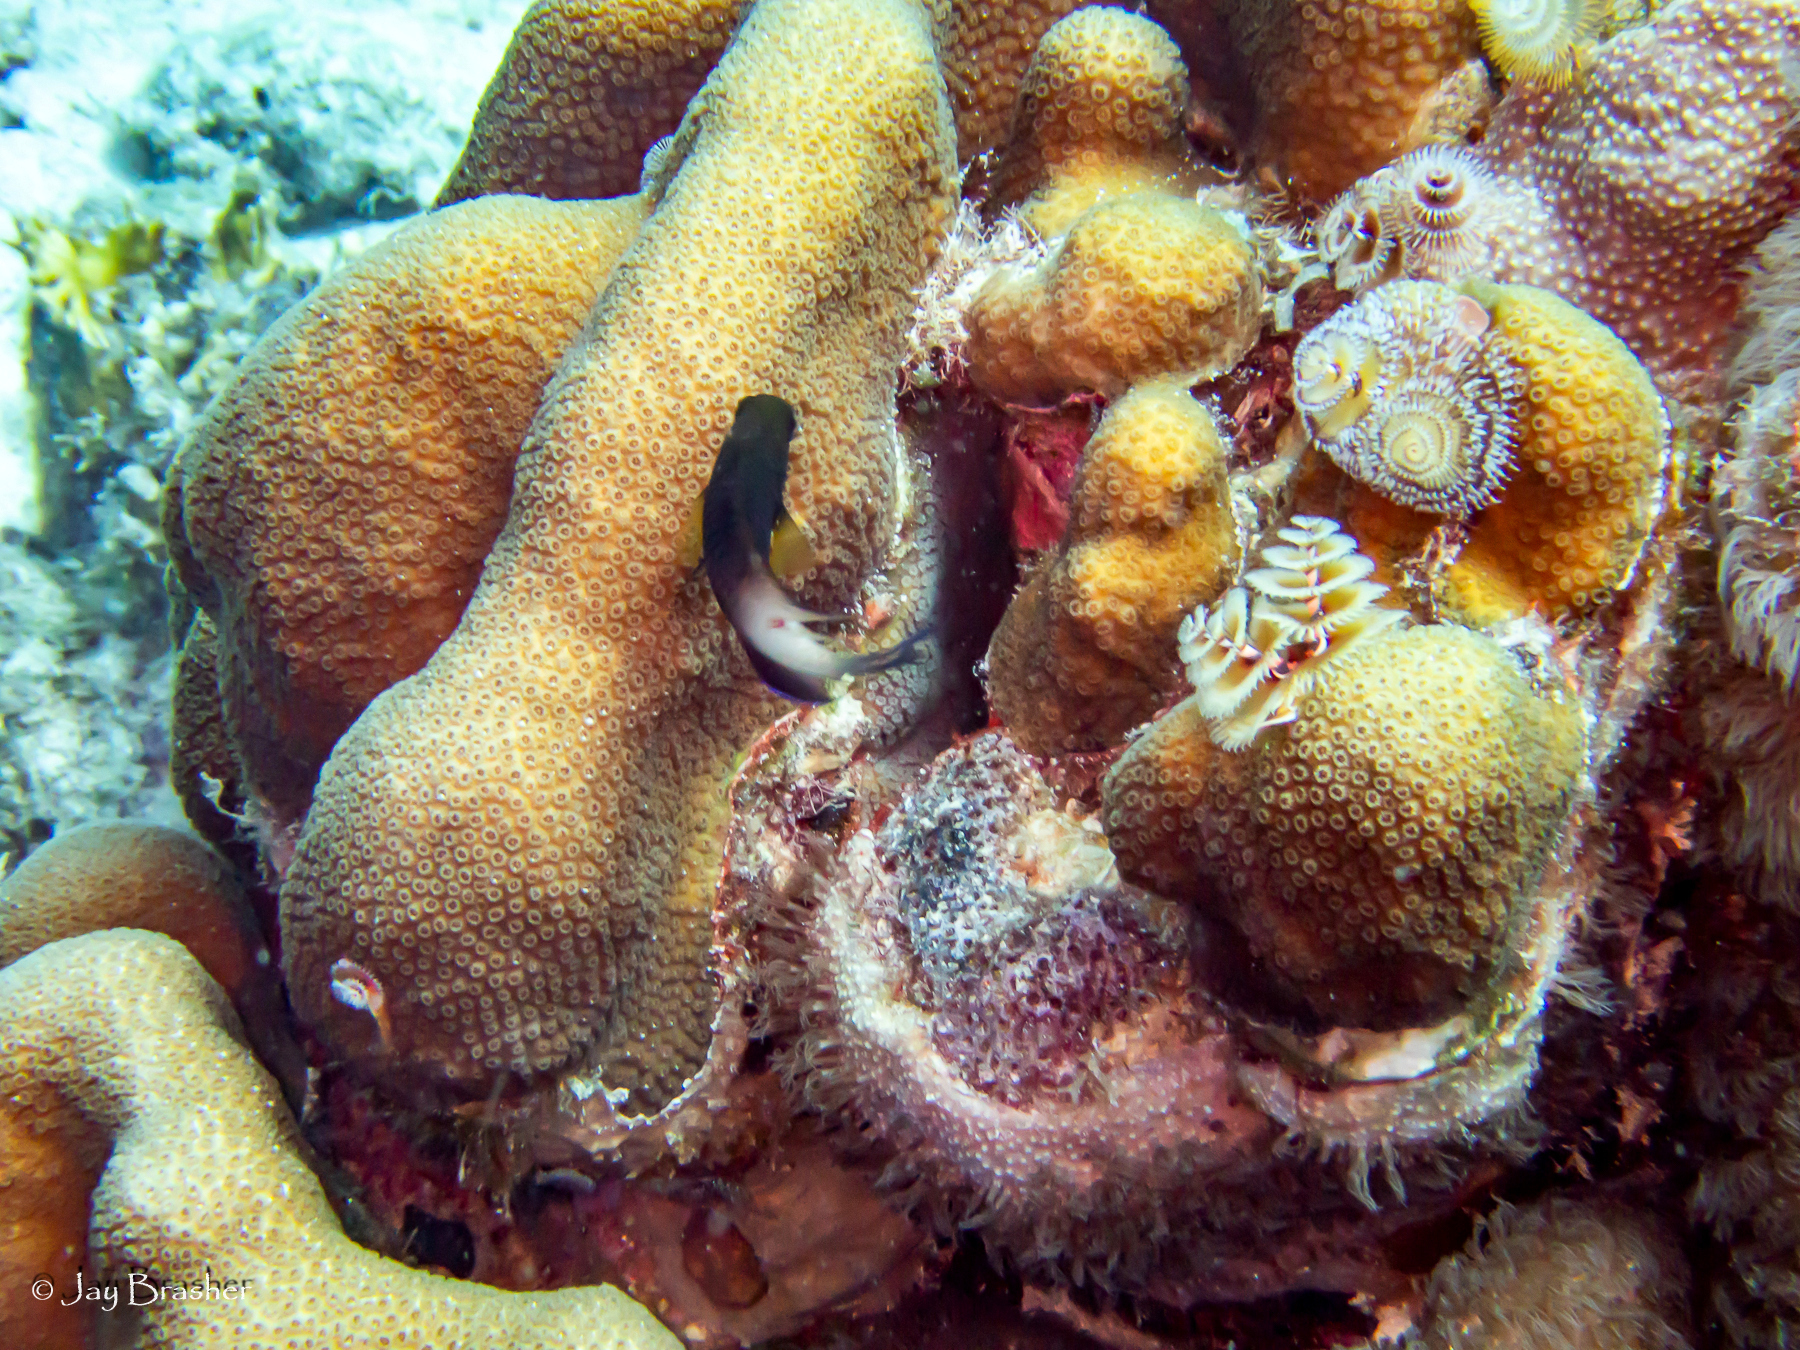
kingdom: Animalia
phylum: Annelida
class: Polychaeta
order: Sabellida
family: Serpulidae
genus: Spirobranchus
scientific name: Spirobranchus giganteus
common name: Christmas tree worm
